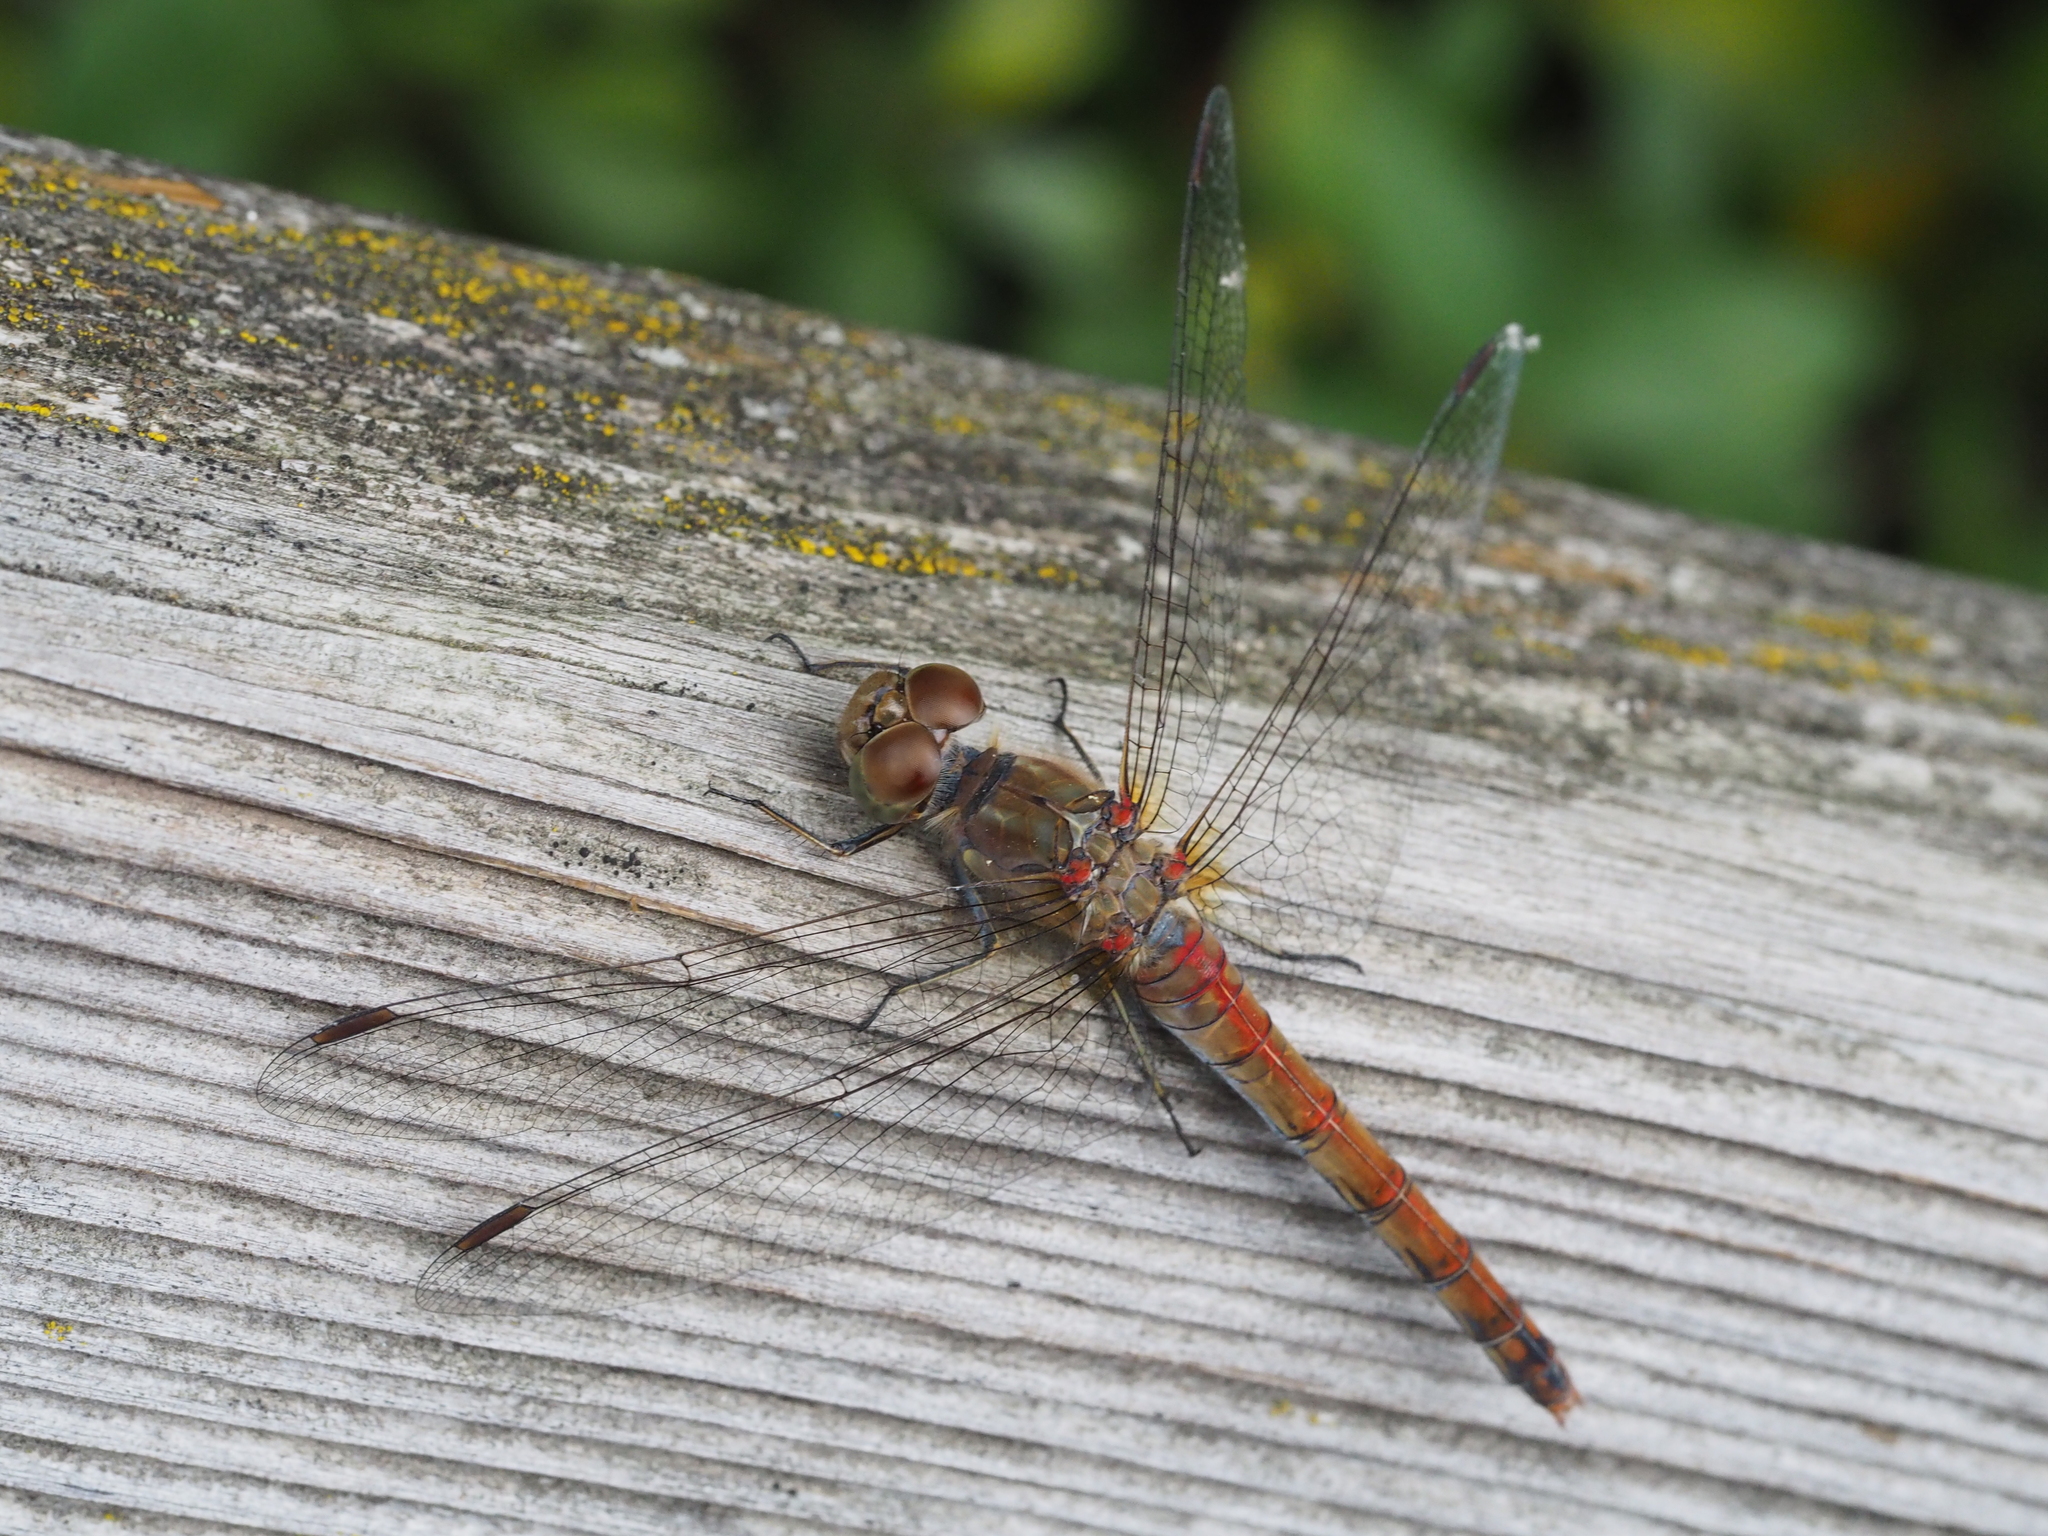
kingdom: Animalia
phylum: Arthropoda
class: Insecta
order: Odonata
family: Libellulidae
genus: Sympetrum
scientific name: Sympetrum striolatum
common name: Common darter
